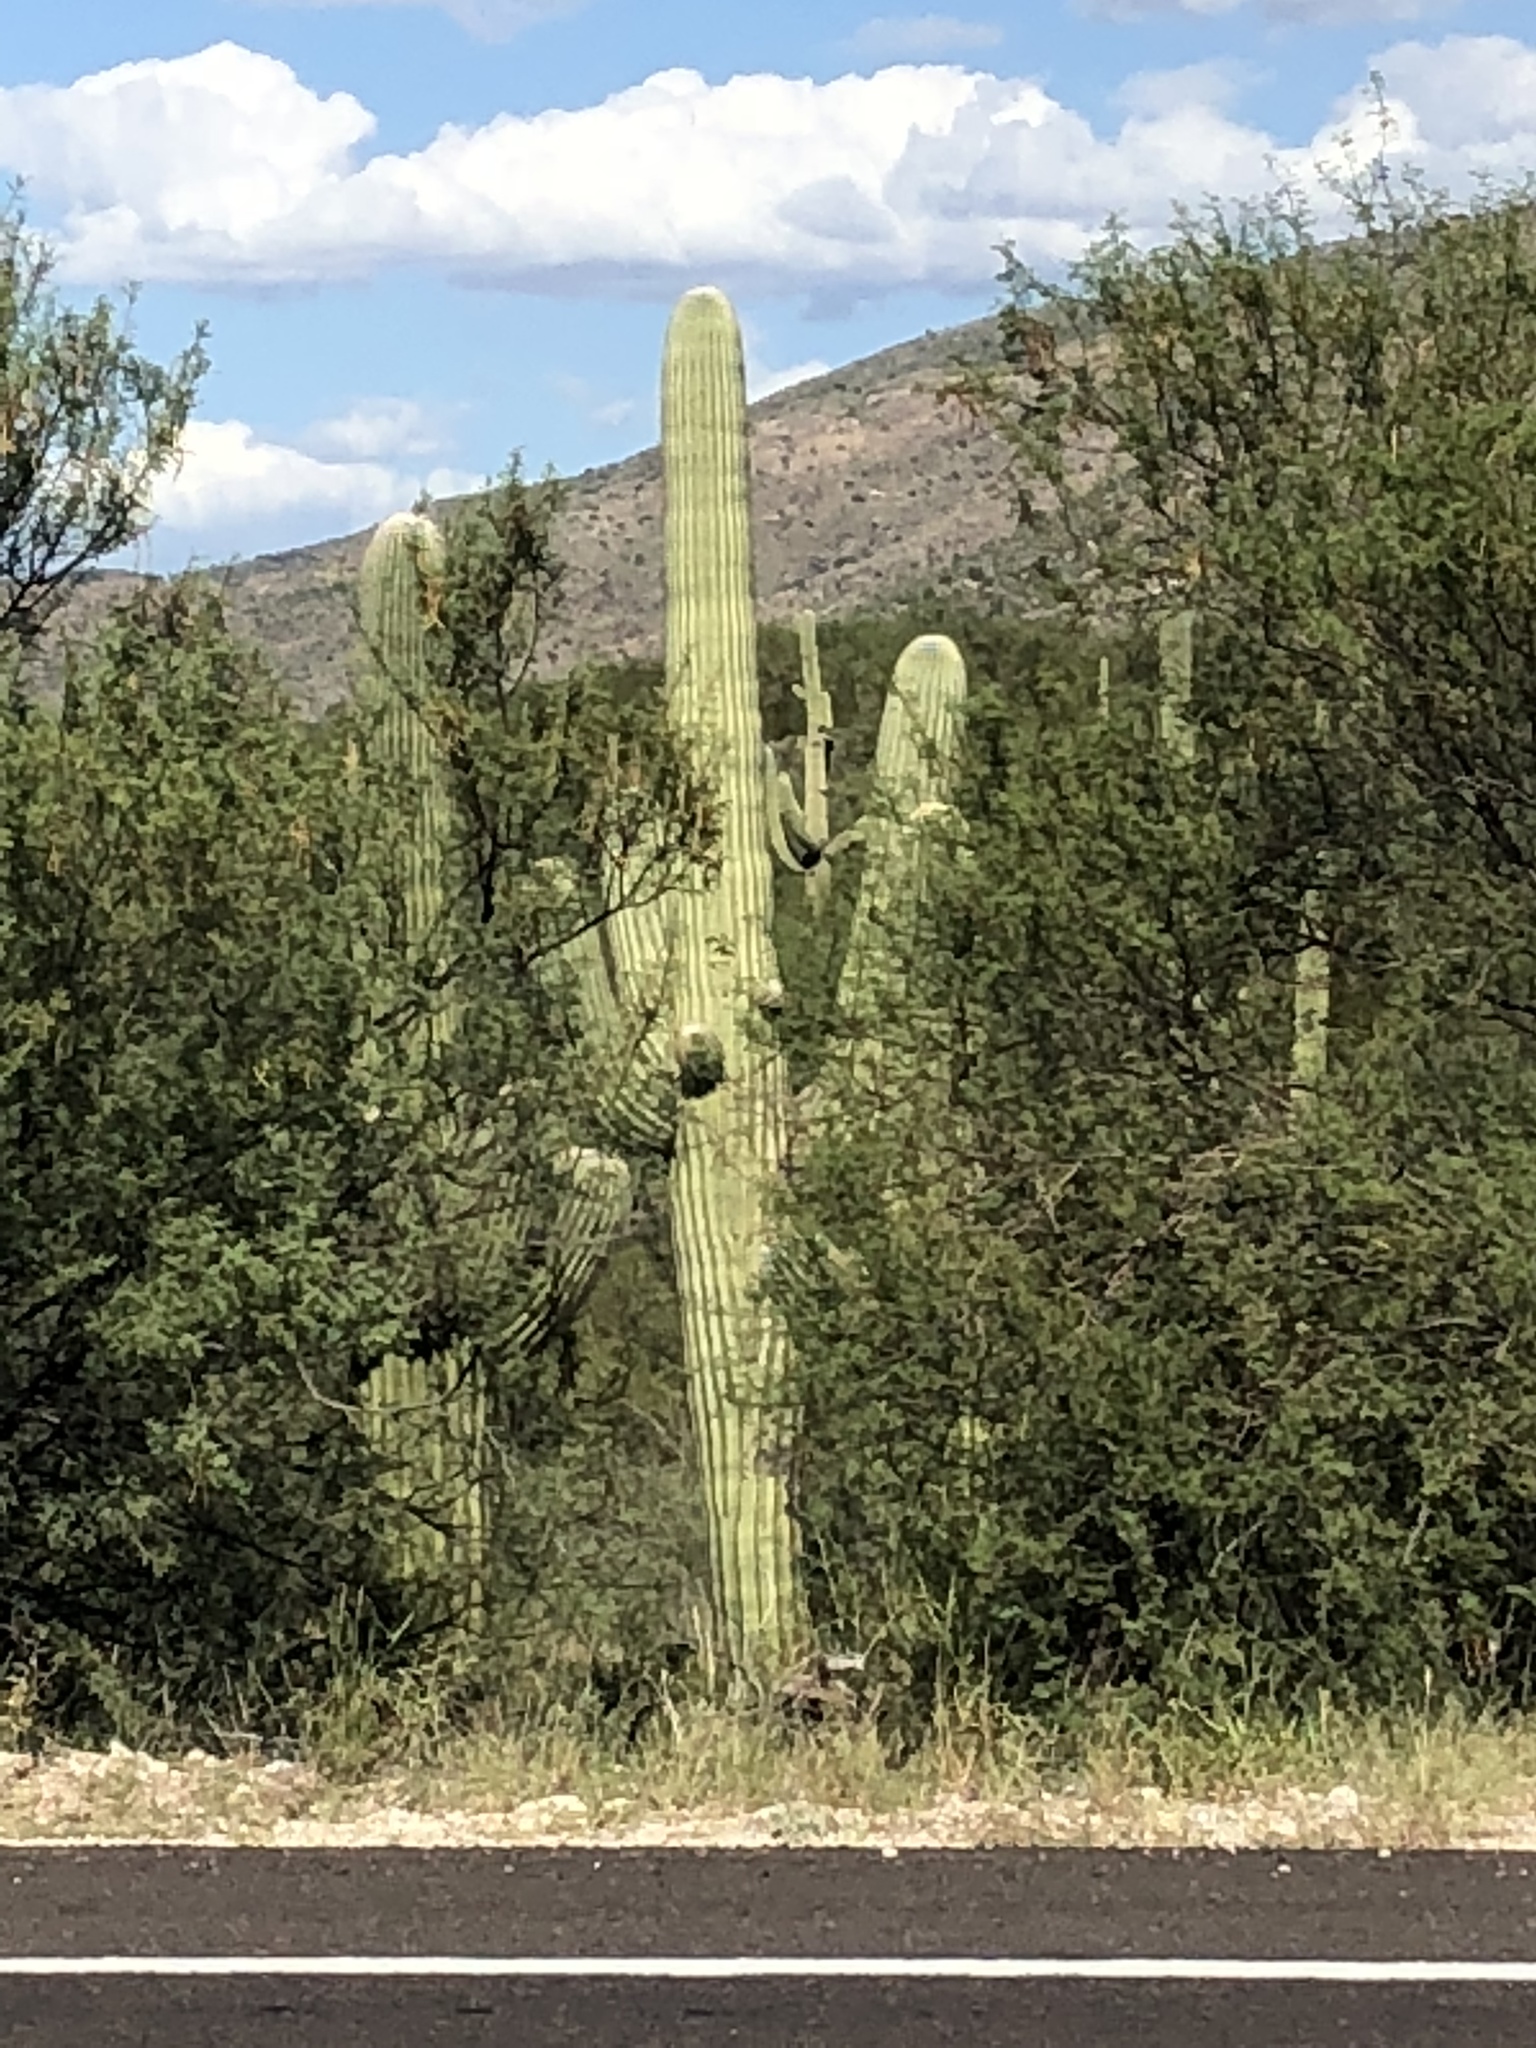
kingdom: Plantae
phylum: Tracheophyta
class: Magnoliopsida
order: Caryophyllales
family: Cactaceae
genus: Carnegiea
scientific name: Carnegiea gigantea
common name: Saguaro
